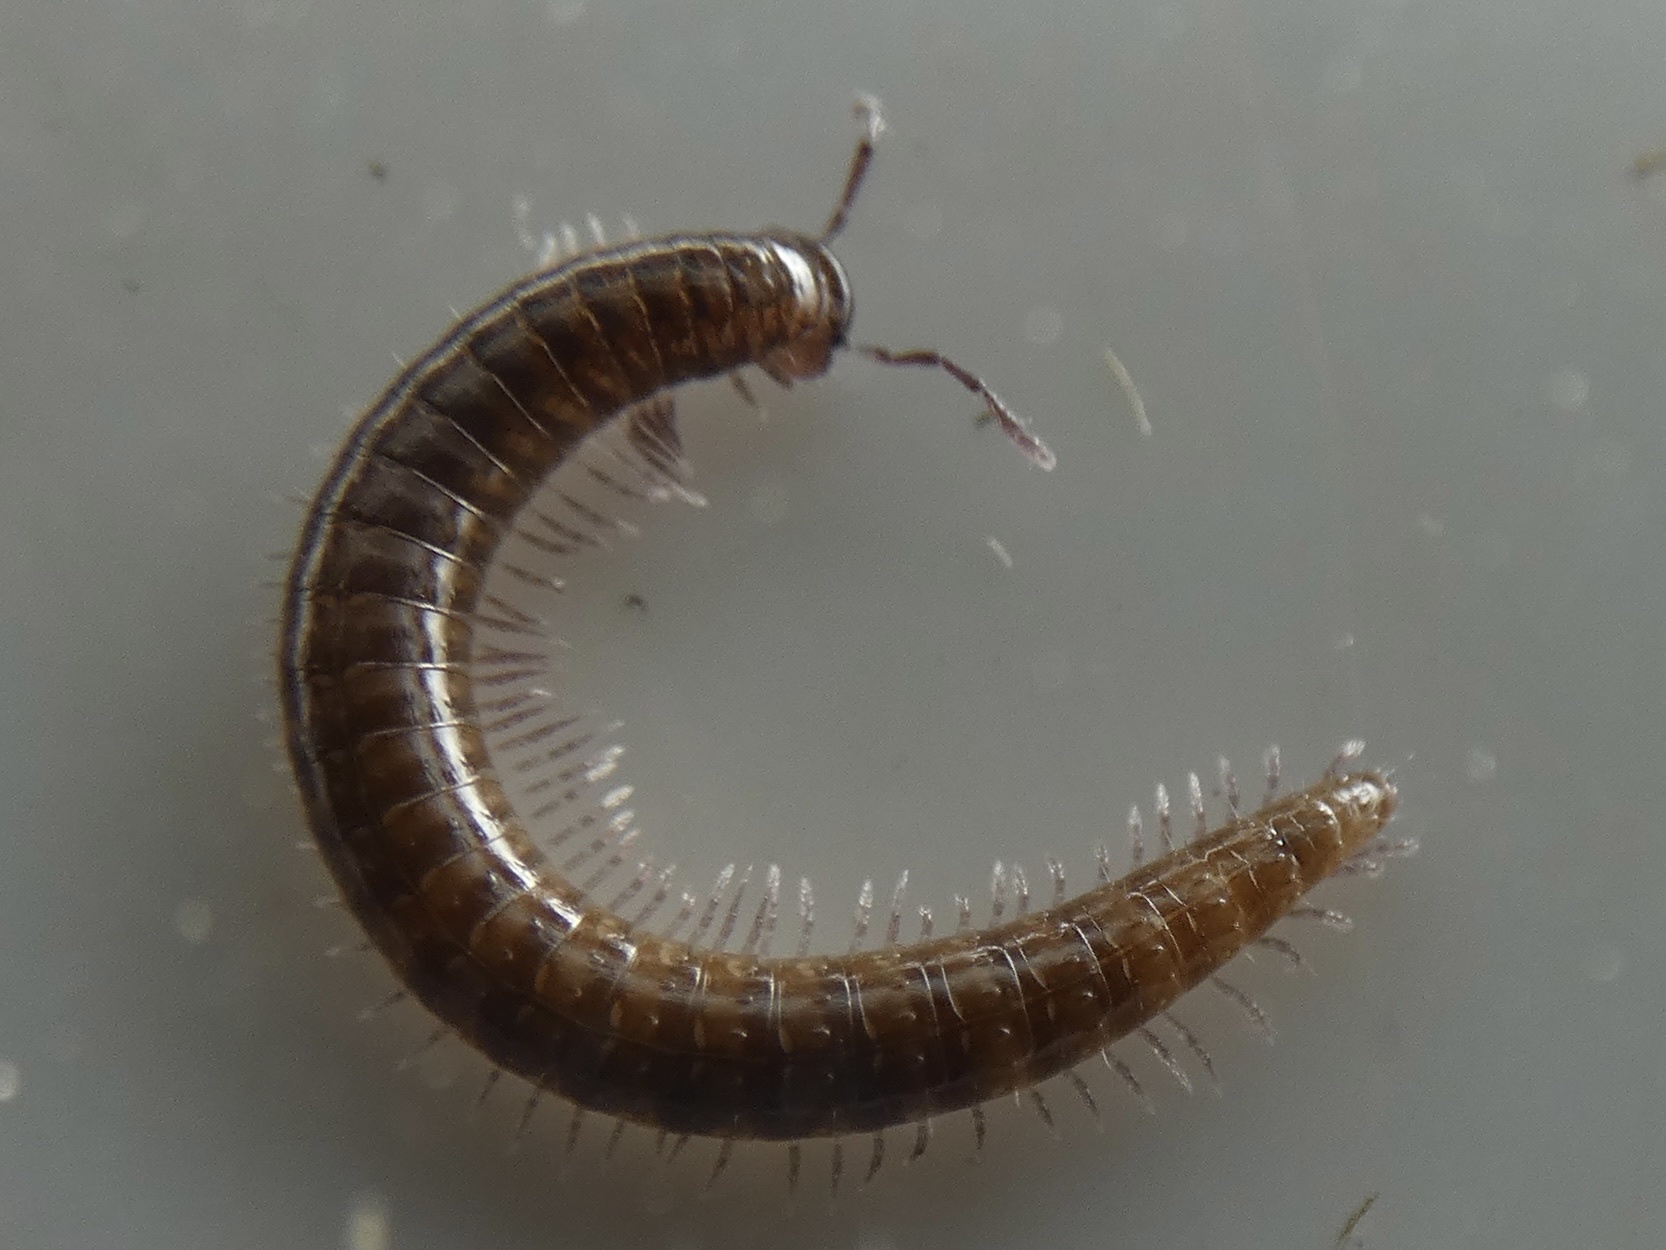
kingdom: Animalia
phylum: Arthropoda
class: Diplopoda
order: Chordeumatida
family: Chordeumatidae
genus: Chordeuma
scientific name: Chordeuma
